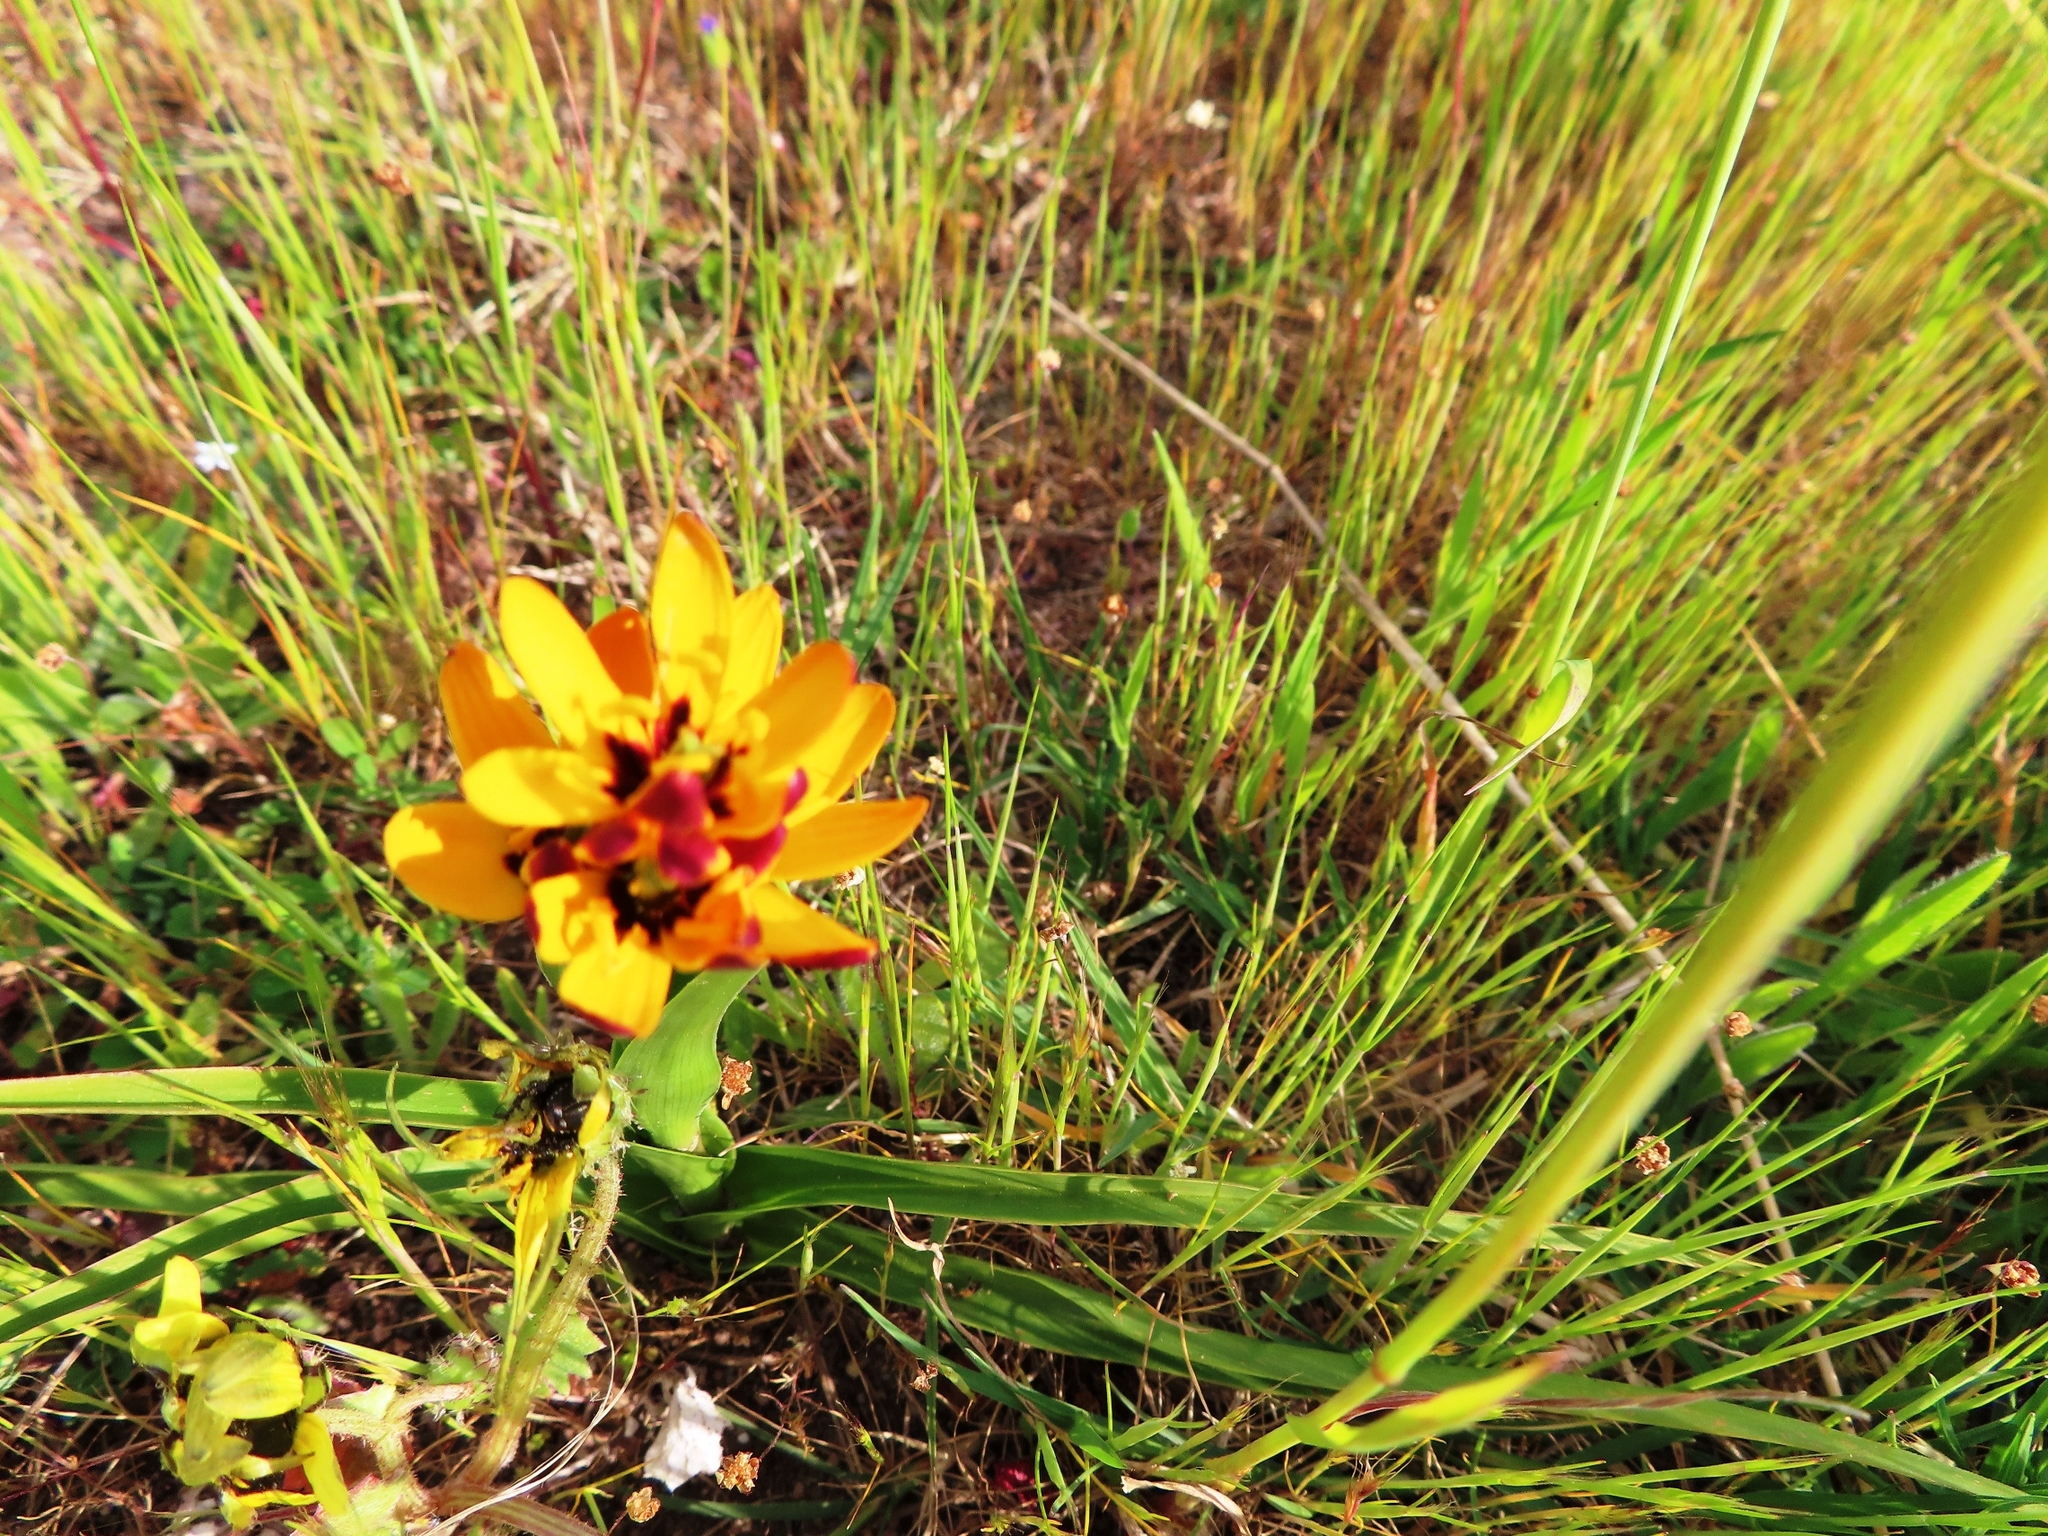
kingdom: Plantae
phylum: Tracheophyta
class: Liliopsida
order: Liliales
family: Colchicaceae
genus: Baeometra
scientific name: Baeometra uniflora
